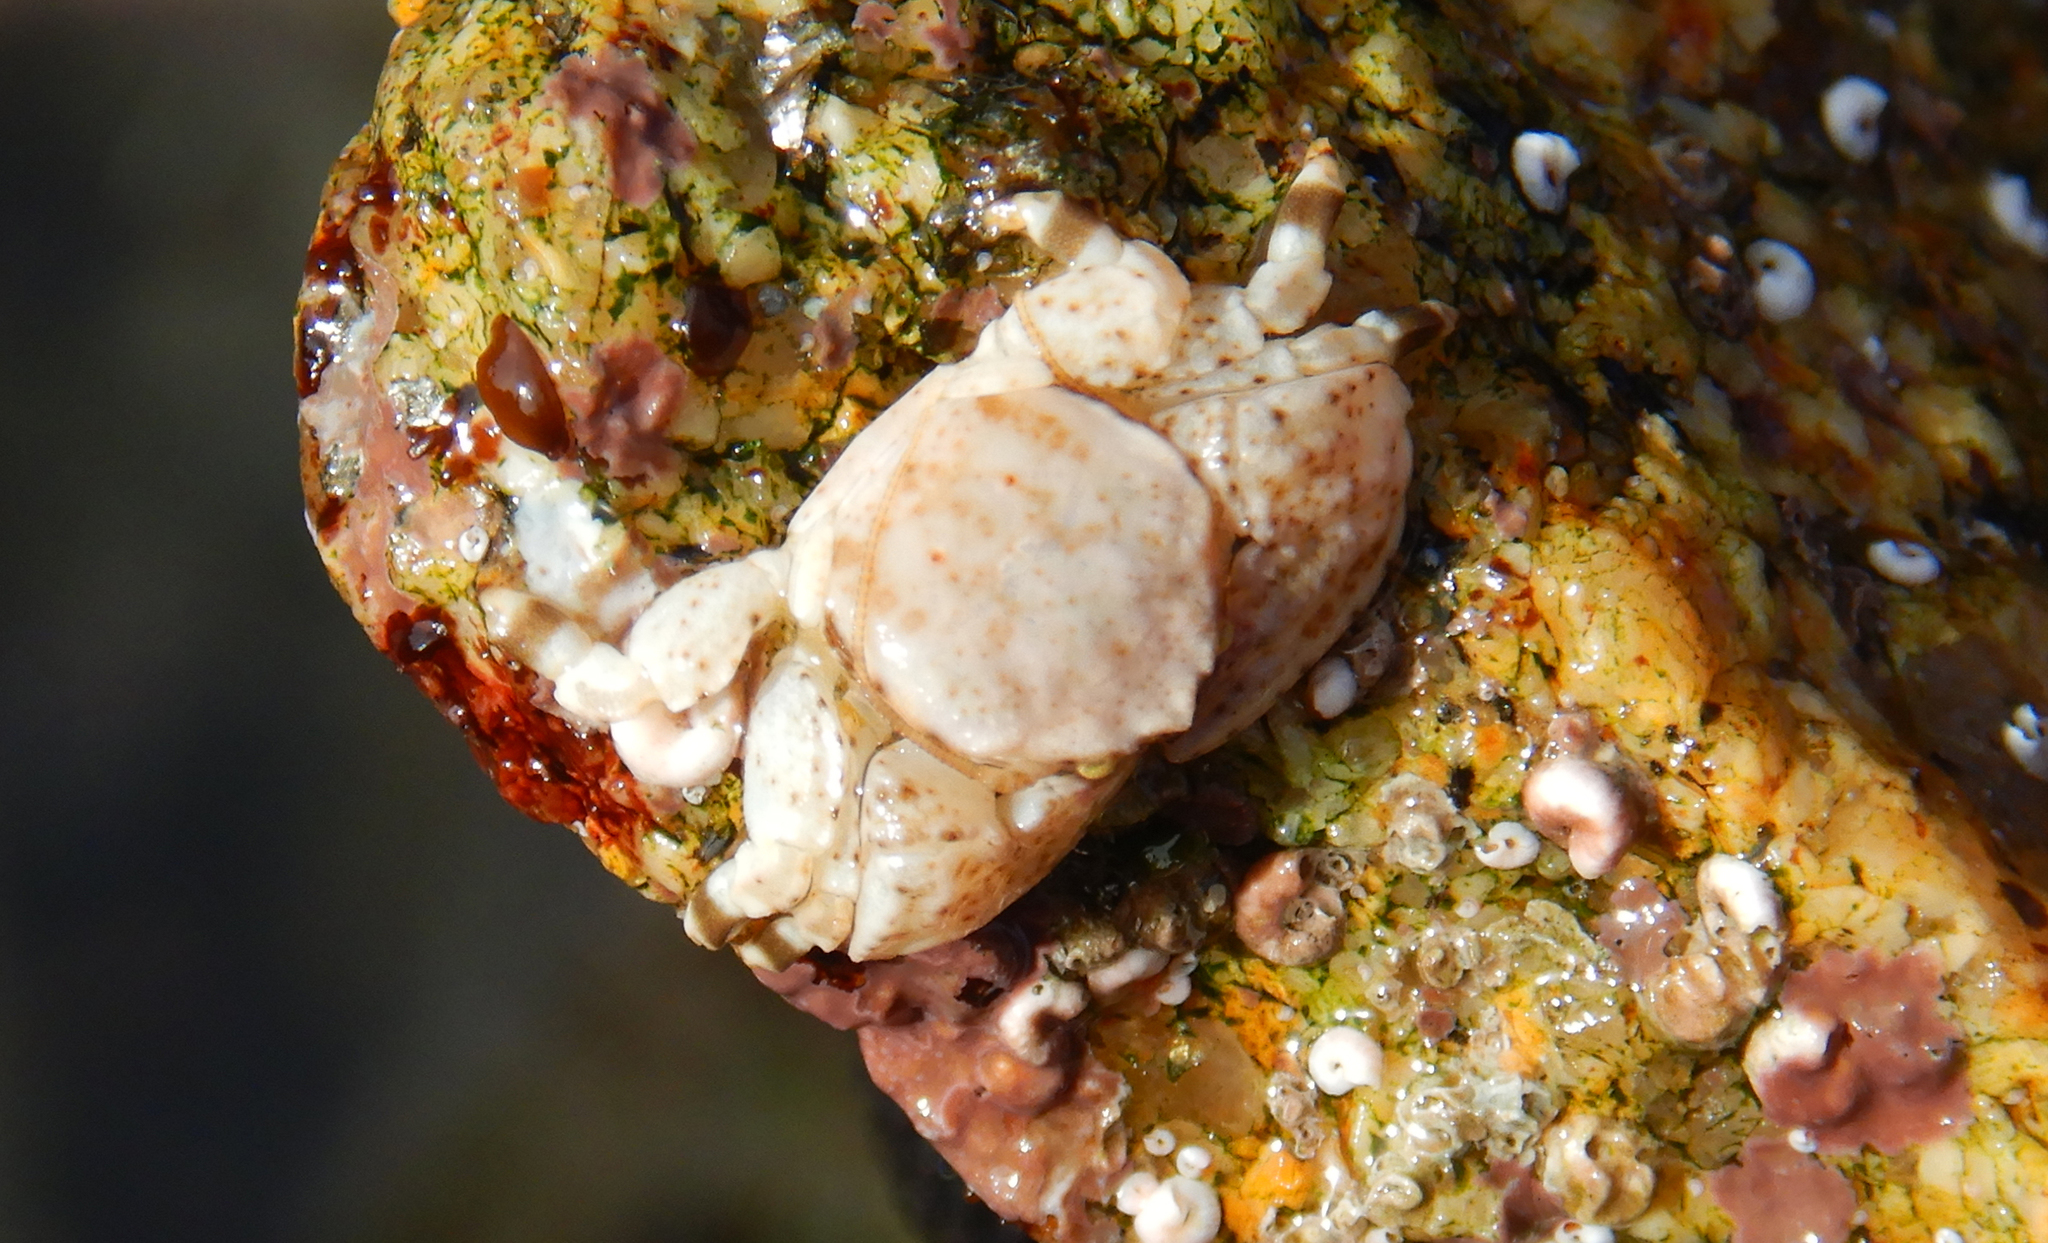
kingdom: Animalia
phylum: Arthropoda
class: Malacostraca
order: Decapoda
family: Porcellanidae
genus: Petrolisthes
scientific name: Petrolisthes angulosus
